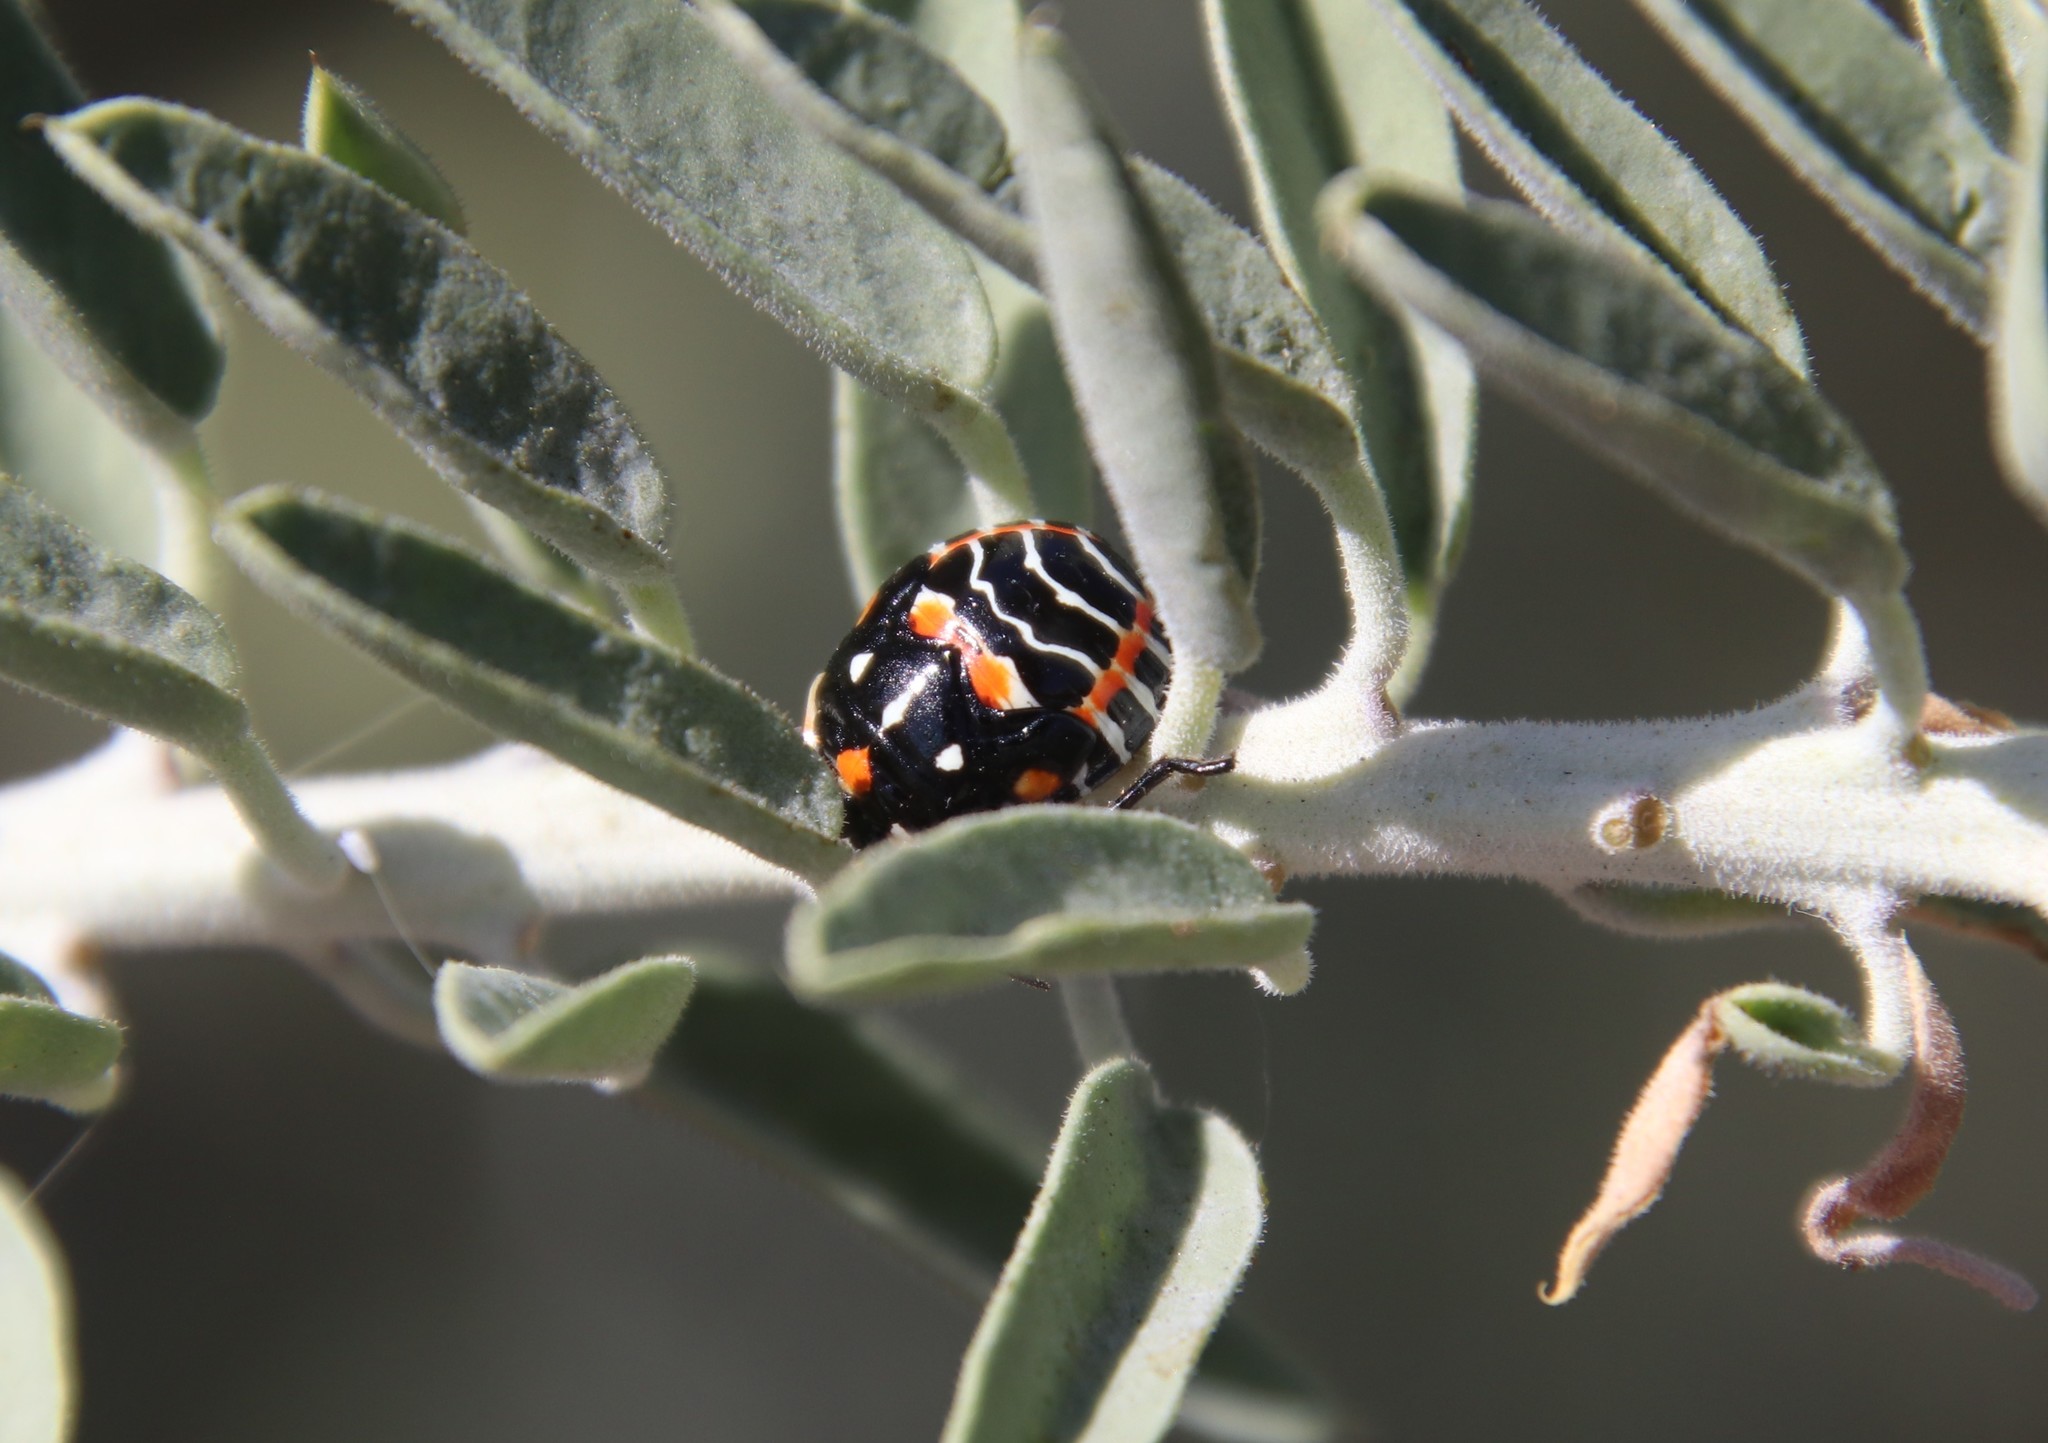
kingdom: Animalia
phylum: Arthropoda
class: Insecta
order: Hemiptera
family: Pentatomidae
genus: Murgantia
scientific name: Murgantia histrionica
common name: Harlequin bug
